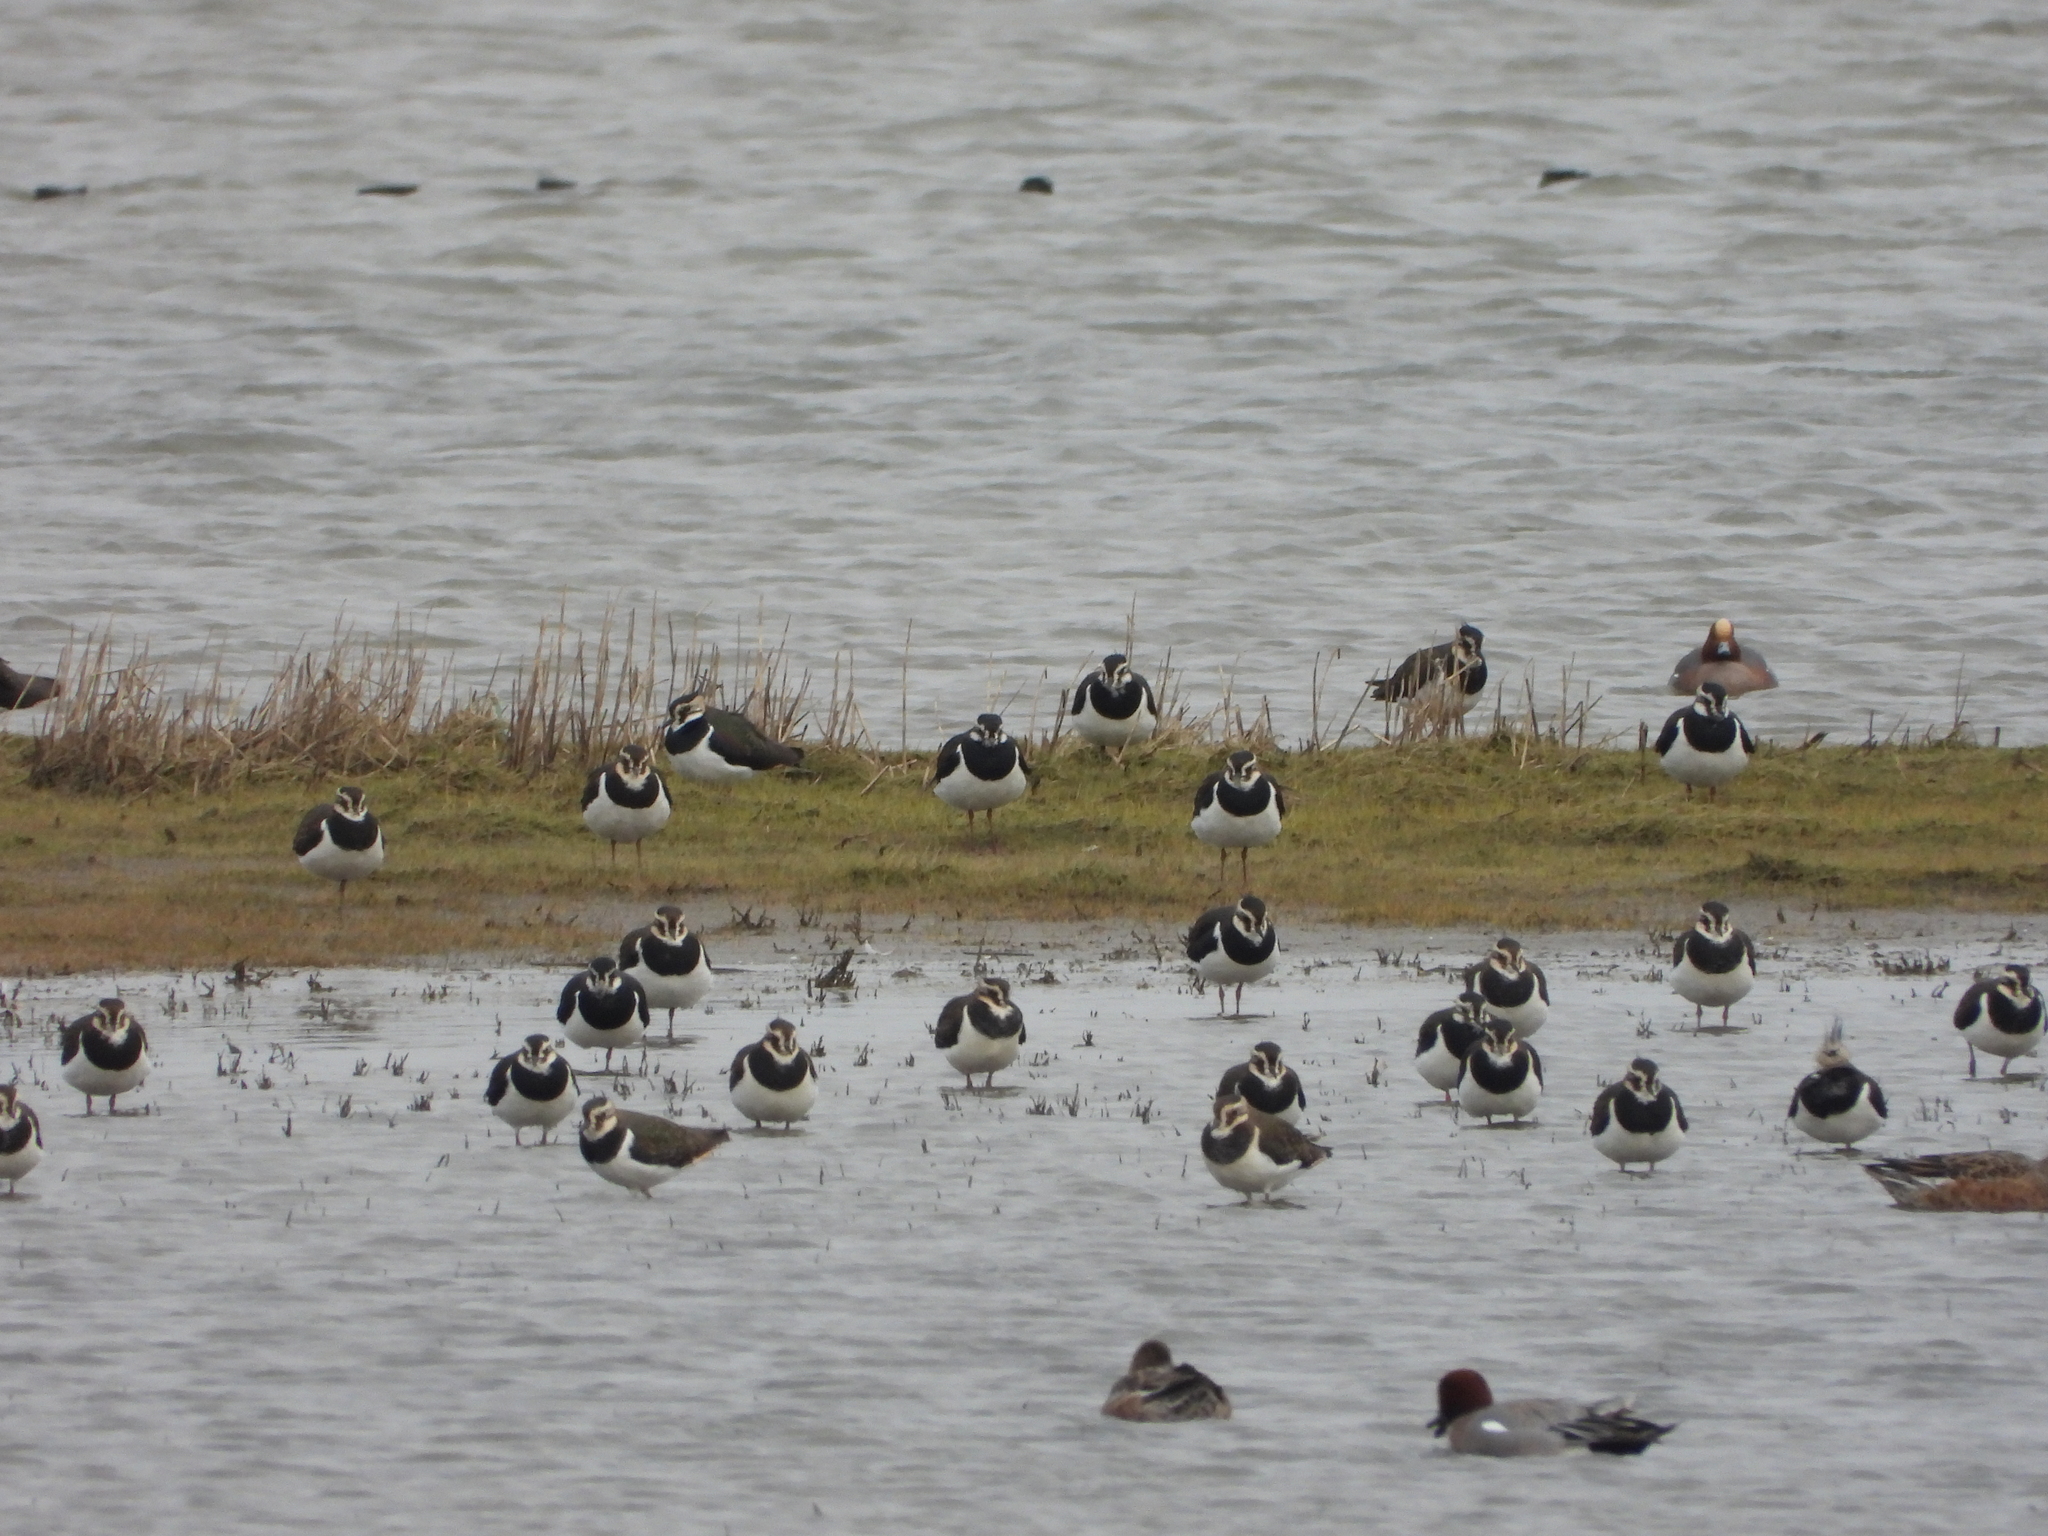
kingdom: Animalia
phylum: Chordata
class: Aves
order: Charadriiformes
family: Charadriidae
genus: Vanellus
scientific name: Vanellus vanellus
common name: Northern lapwing
